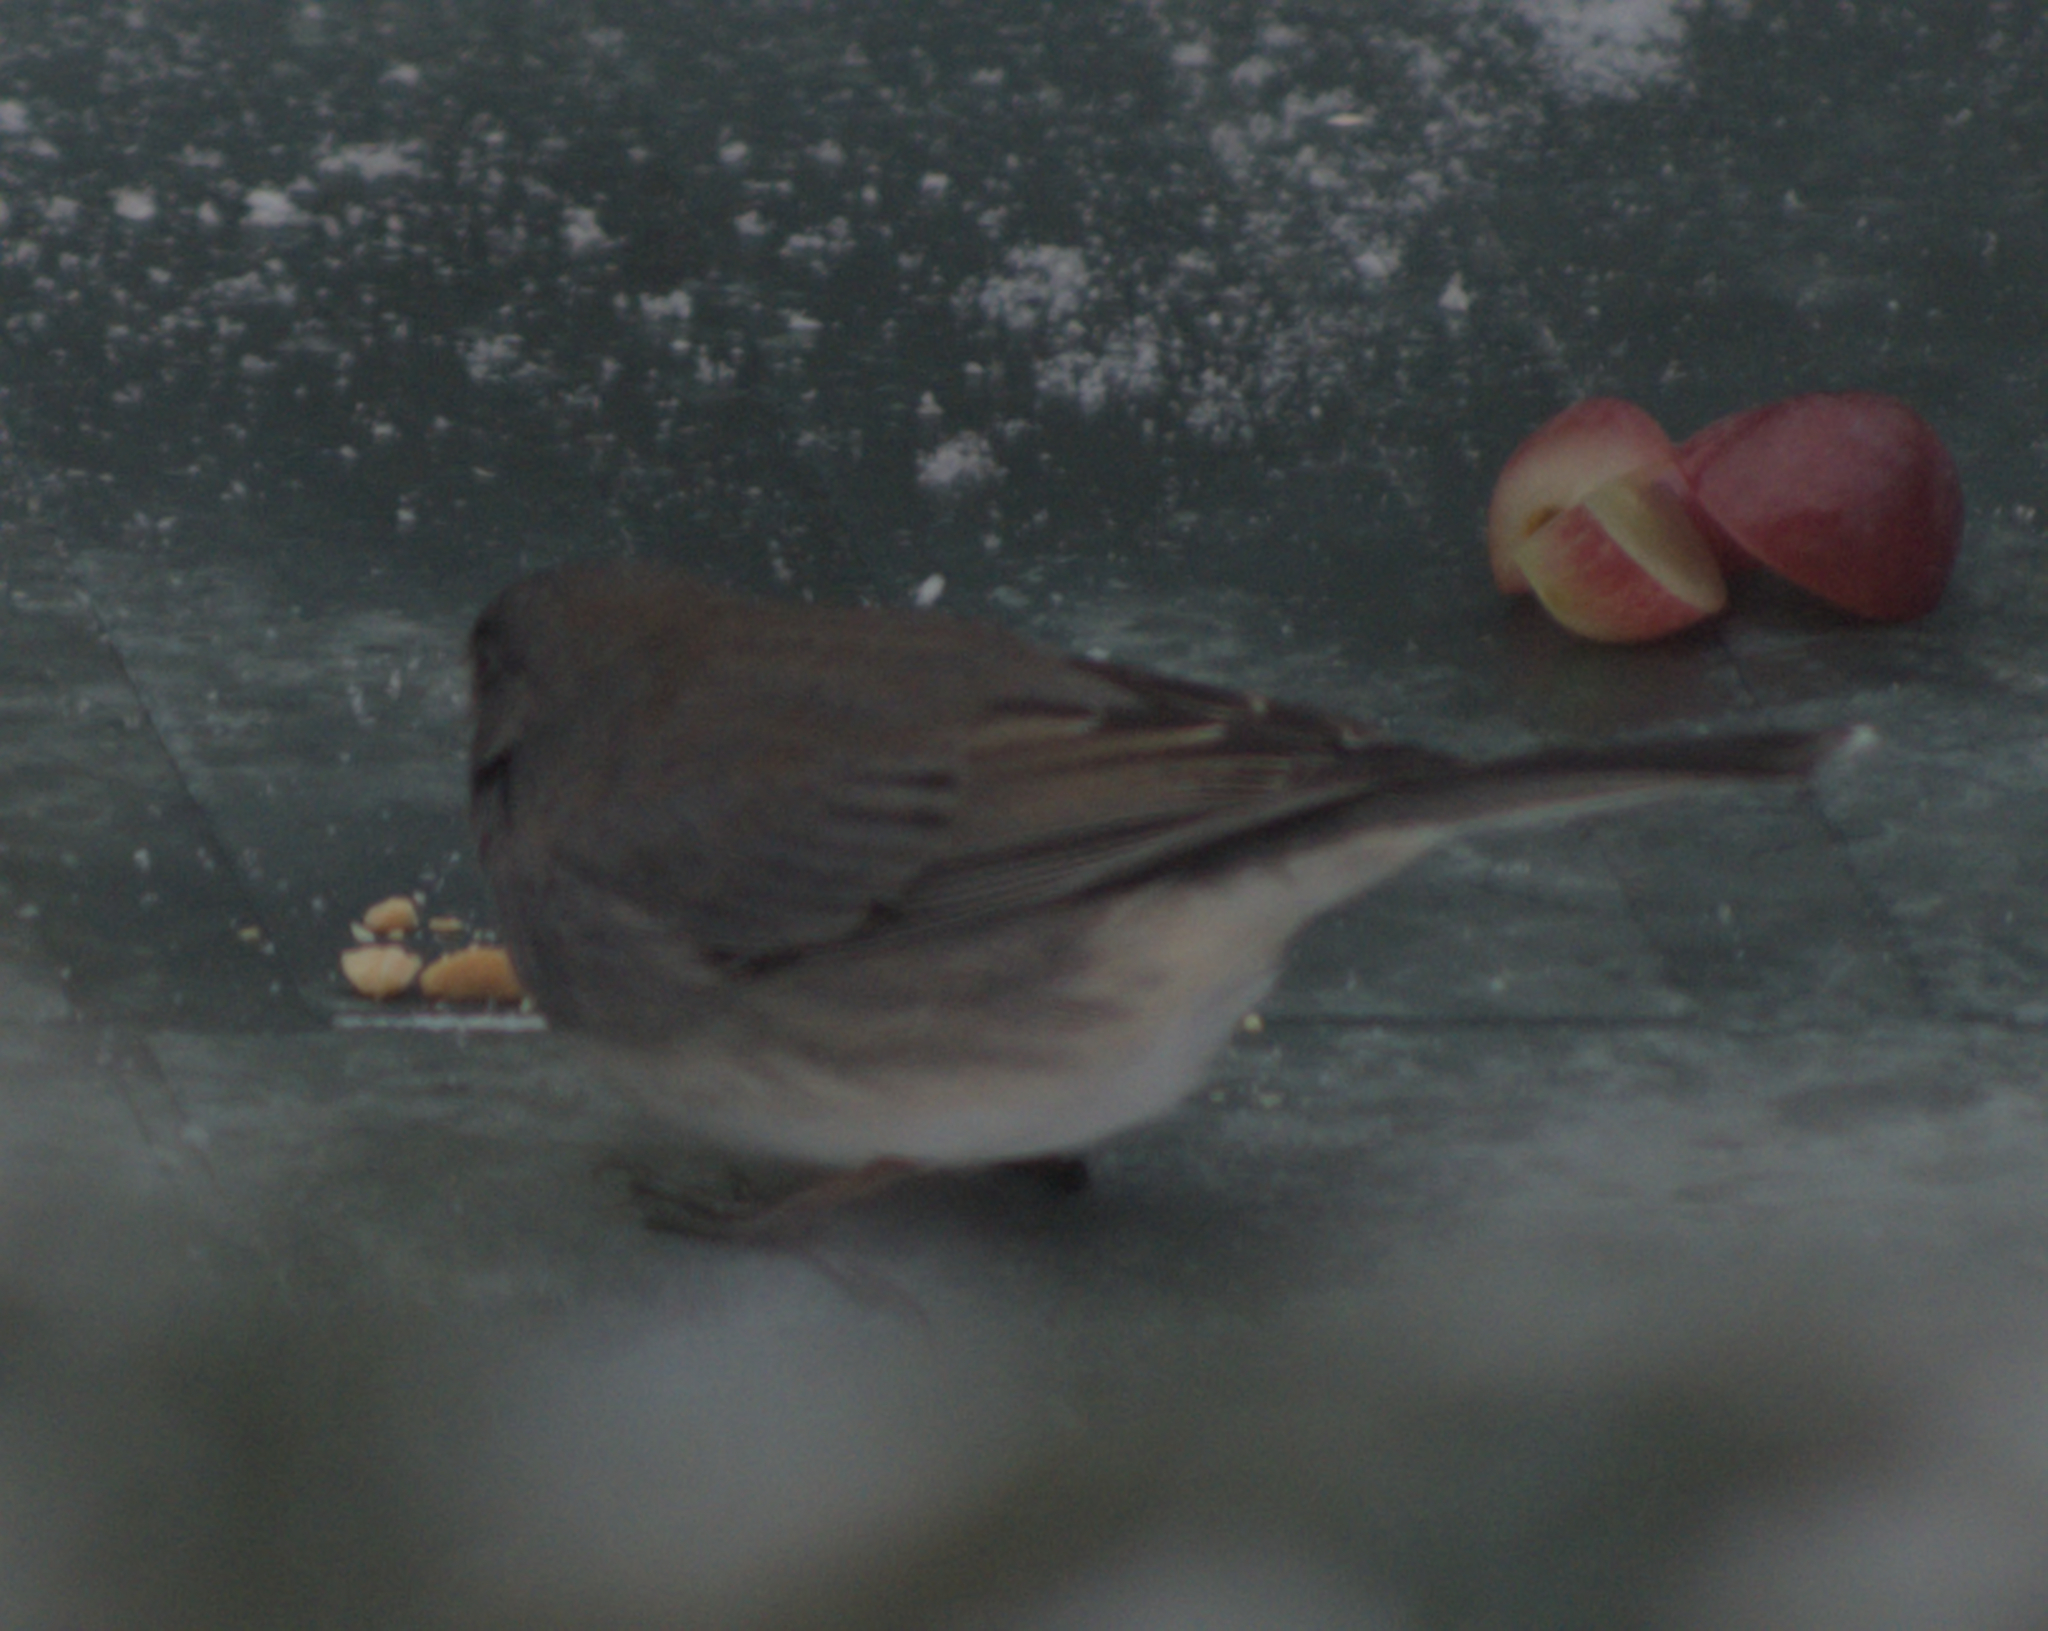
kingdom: Animalia
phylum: Chordata
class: Aves
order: Passeriformes
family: Passerellidae
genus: Junco
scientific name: Junco hyemalis
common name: Dark-eyed junco
